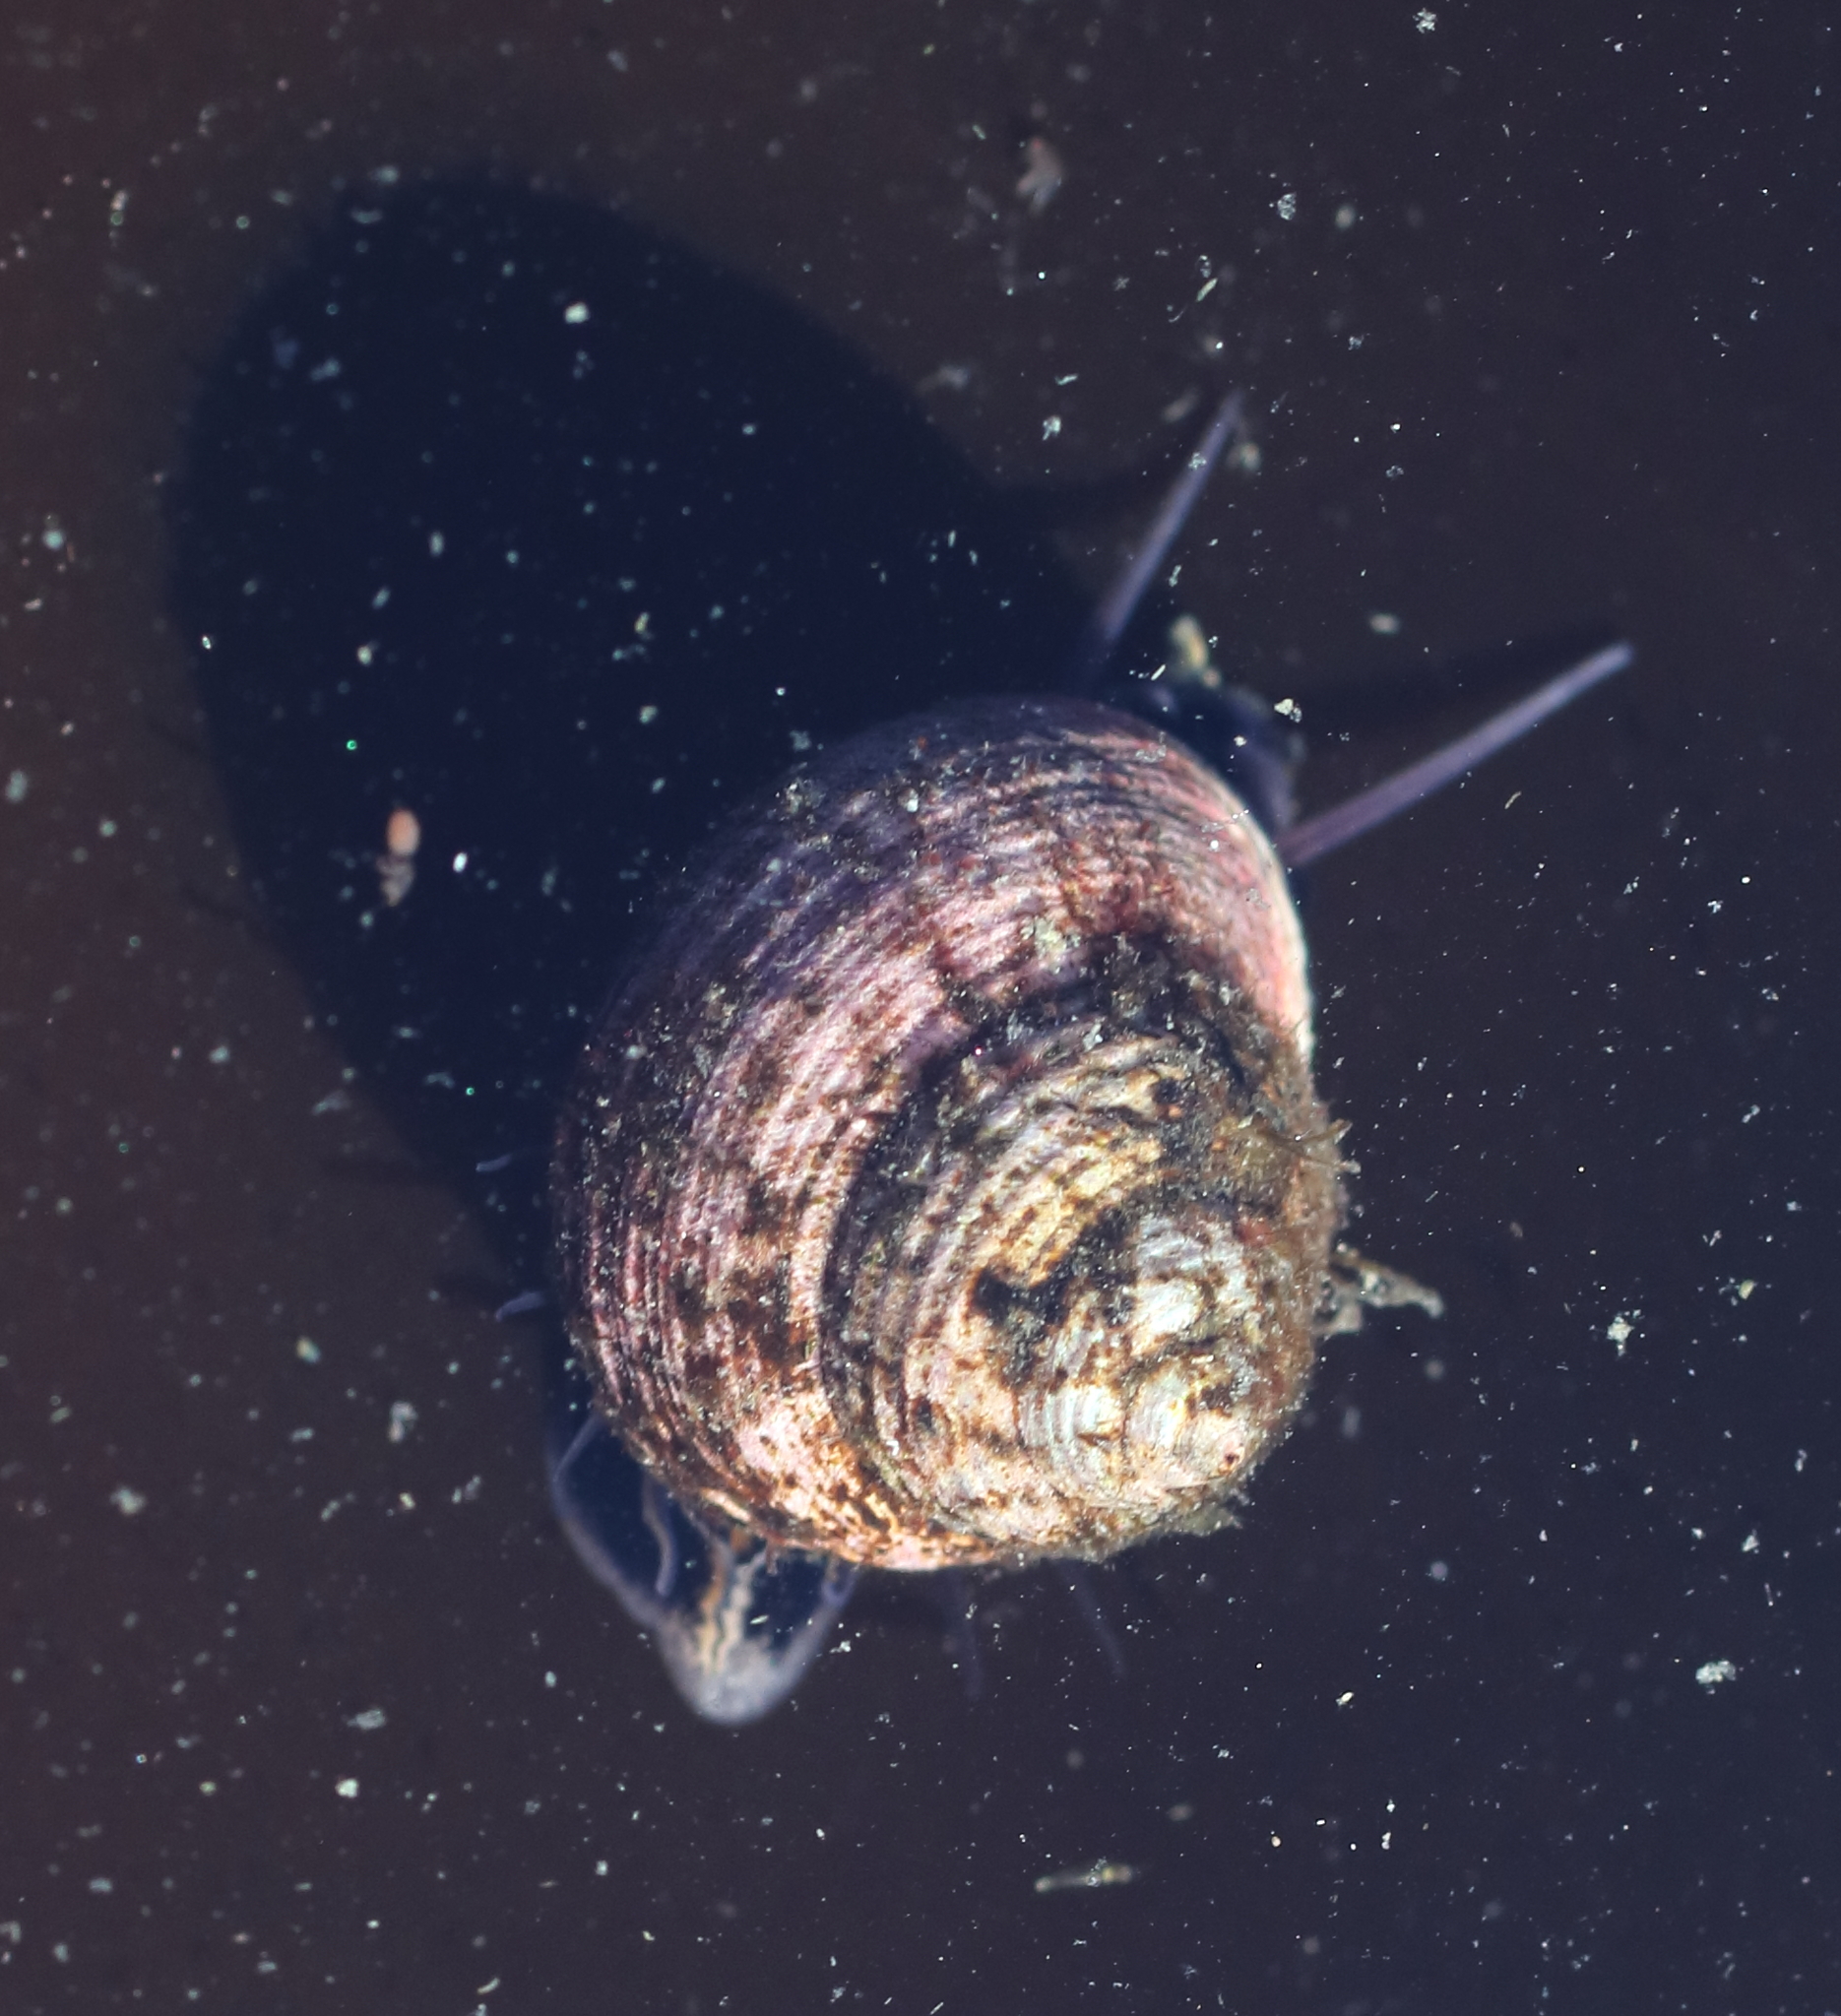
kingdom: Animalia
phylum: Mollusca
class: Gastropoda
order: Trochida
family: Margaritidae
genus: Margarites
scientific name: Margarites pupillus
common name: Puppet margarite
